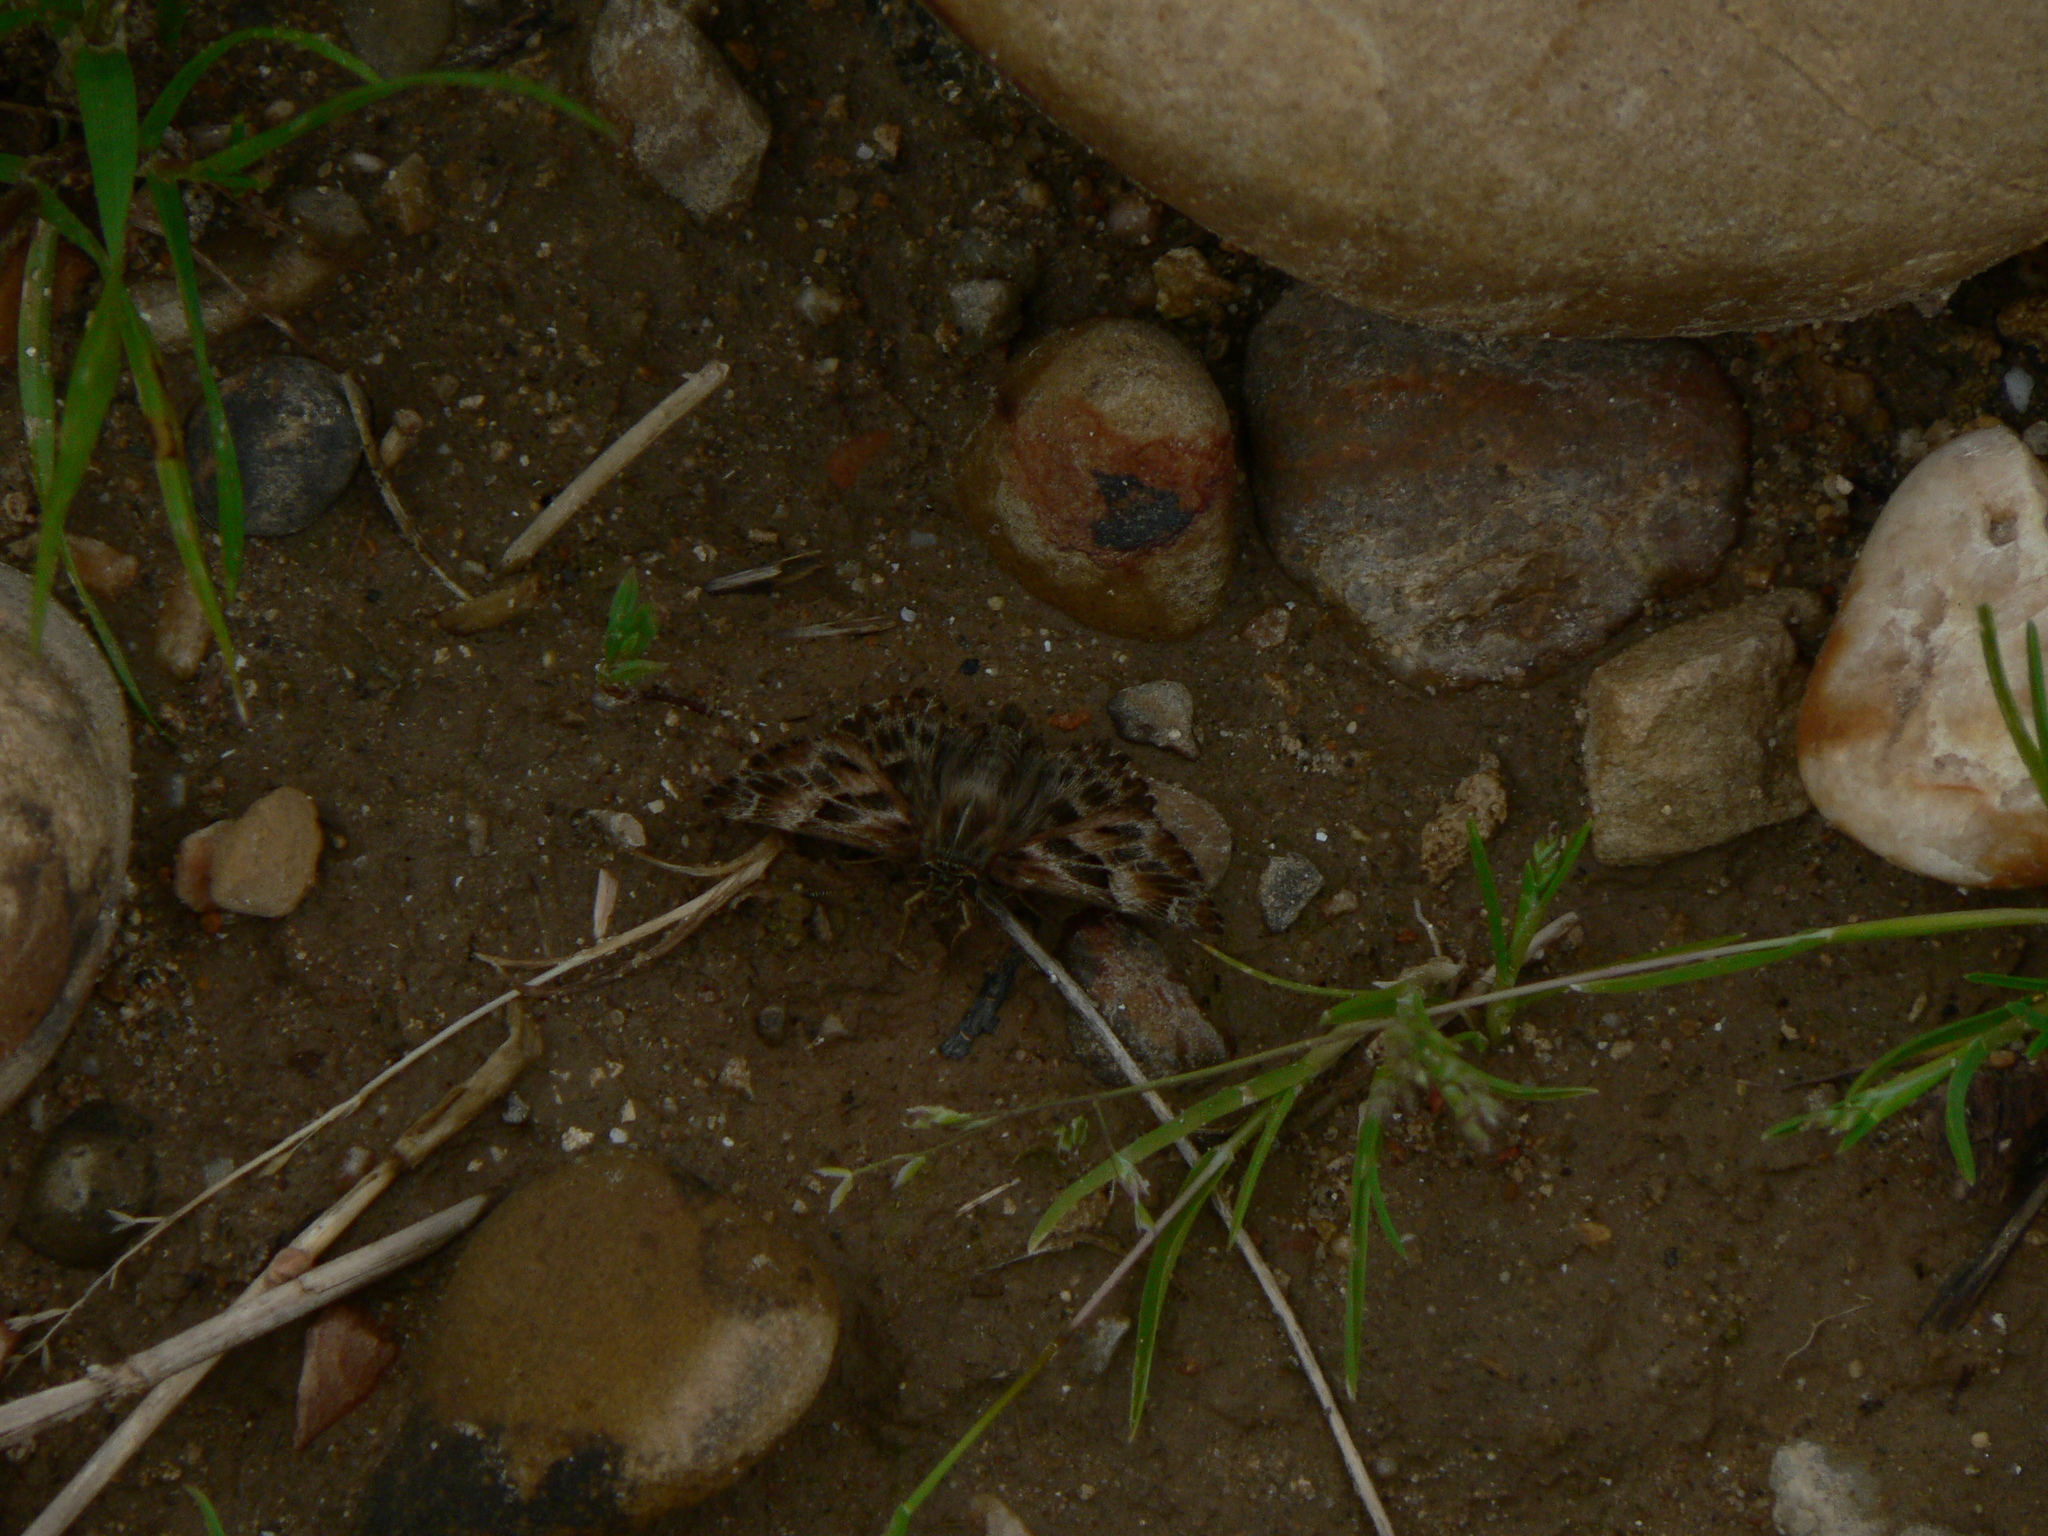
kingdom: Animalia
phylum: Arthropoda
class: Insecta
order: Lepidoptera
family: Hesperiidae
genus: Carcharodus
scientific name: Carcharodus alceae
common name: Mallow skipper
